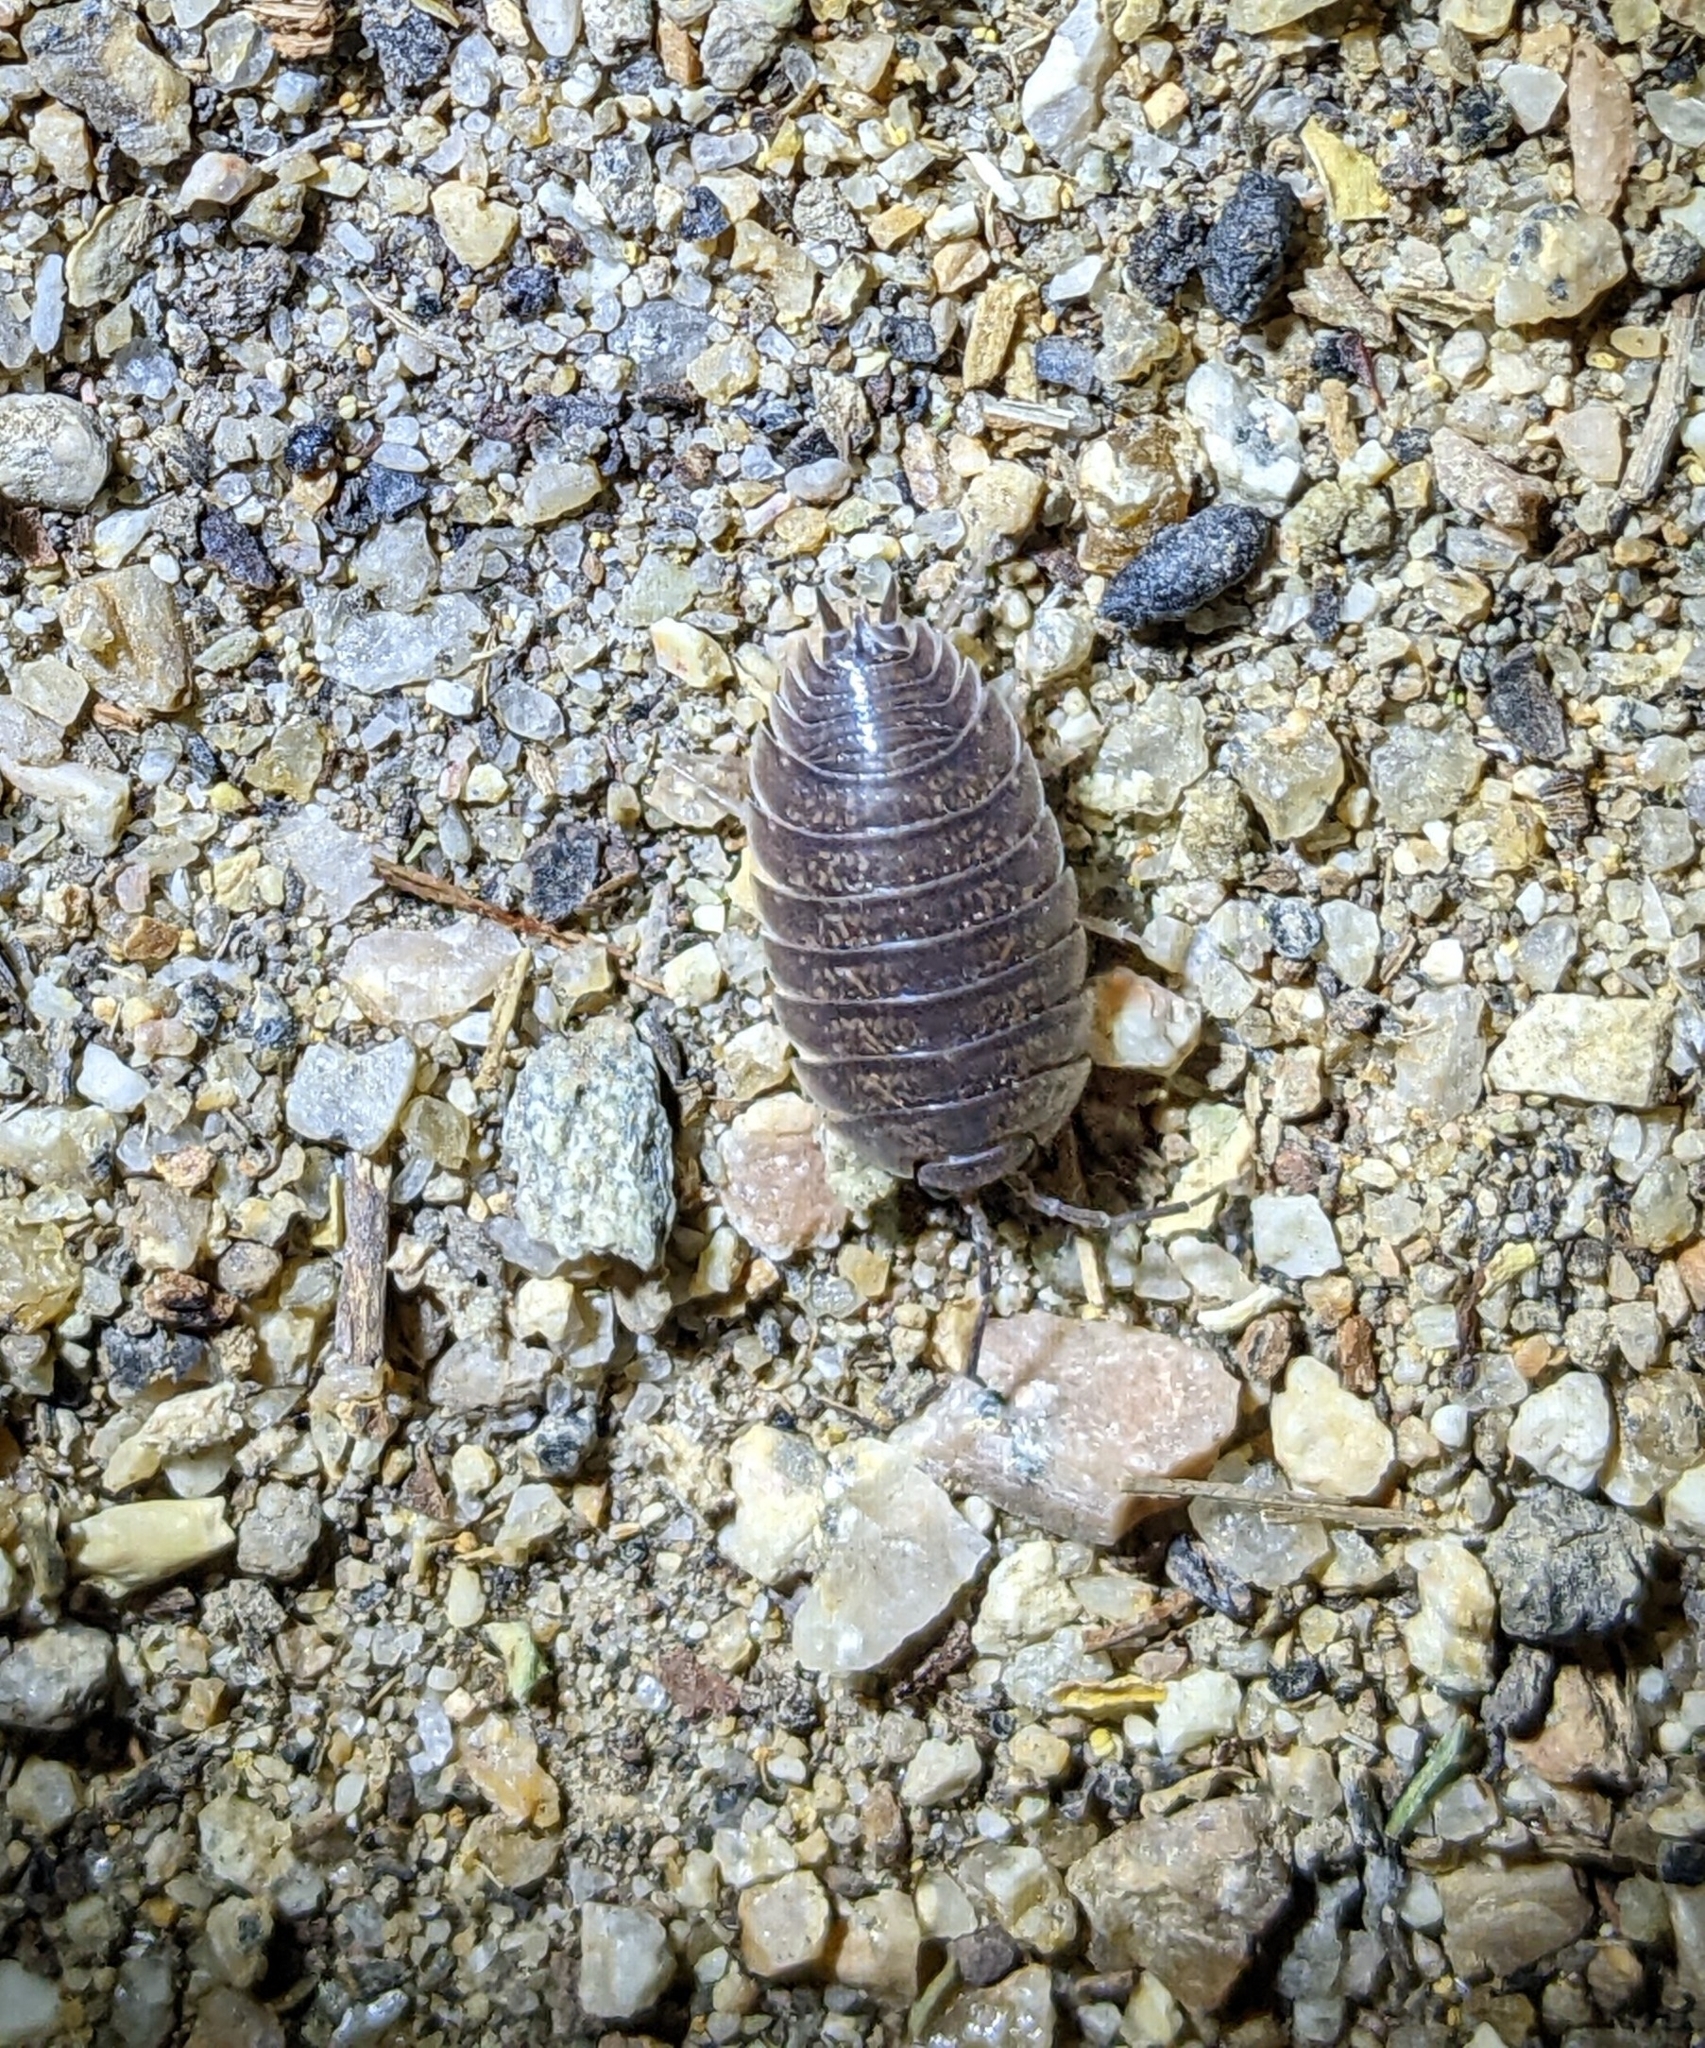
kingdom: Animalia
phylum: Arthropoda
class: Malacostraca
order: Isopoda
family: Porcellionidae
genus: Porcellio
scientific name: Porcellio laevis
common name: Swift woodlouse
